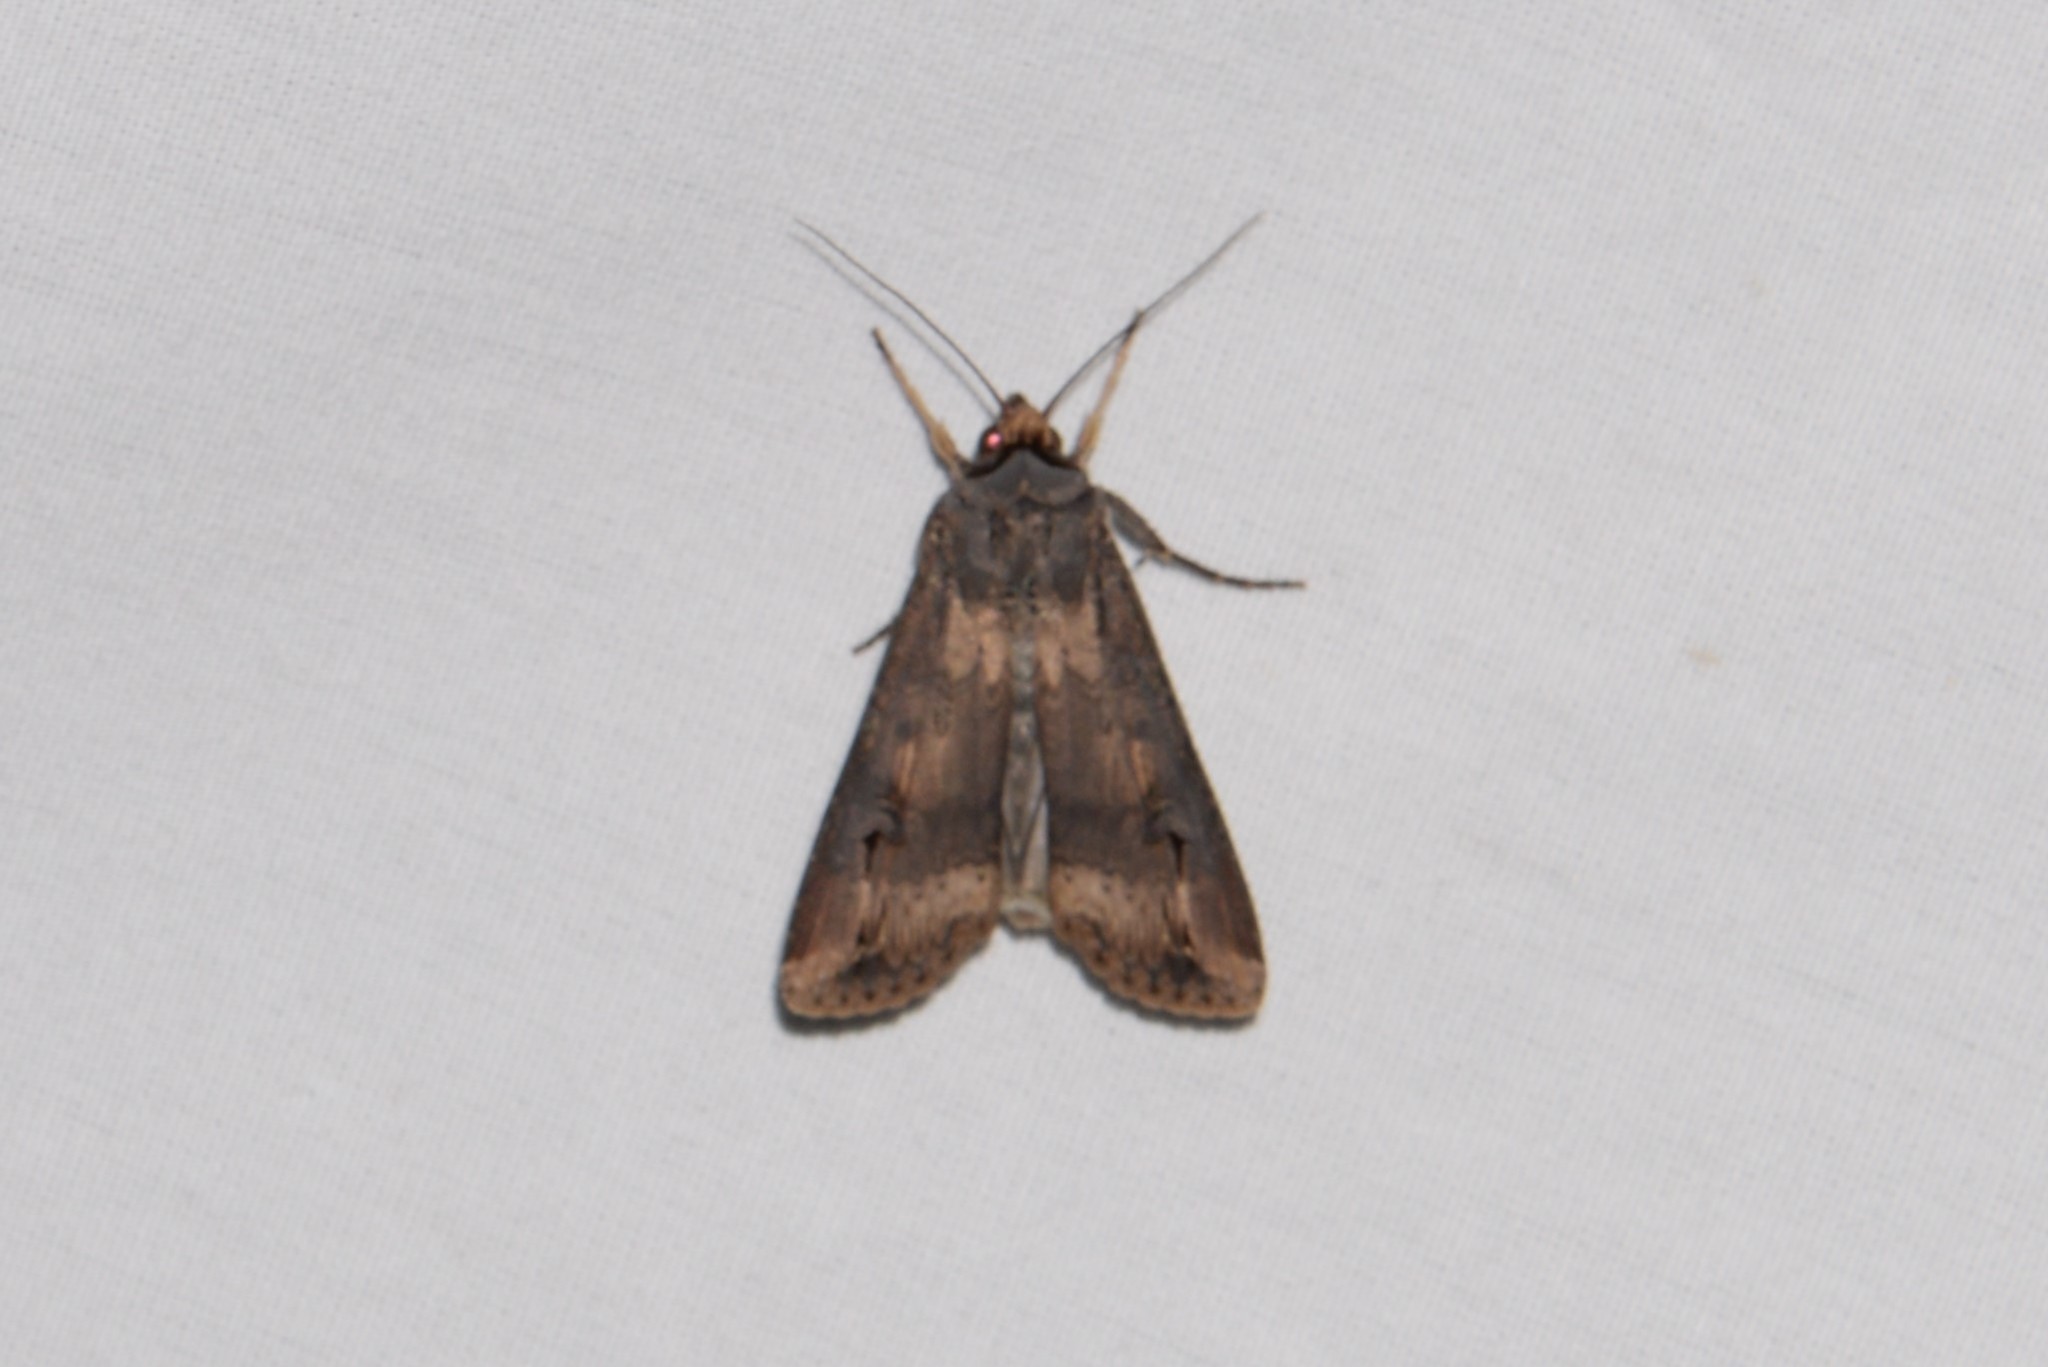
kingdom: Animalia
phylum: Arthropoda
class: Insecta
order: Lepidoptera
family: Noctuidae
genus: Agrotis
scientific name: Agrotis ipsilon
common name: Dark sword-grass
